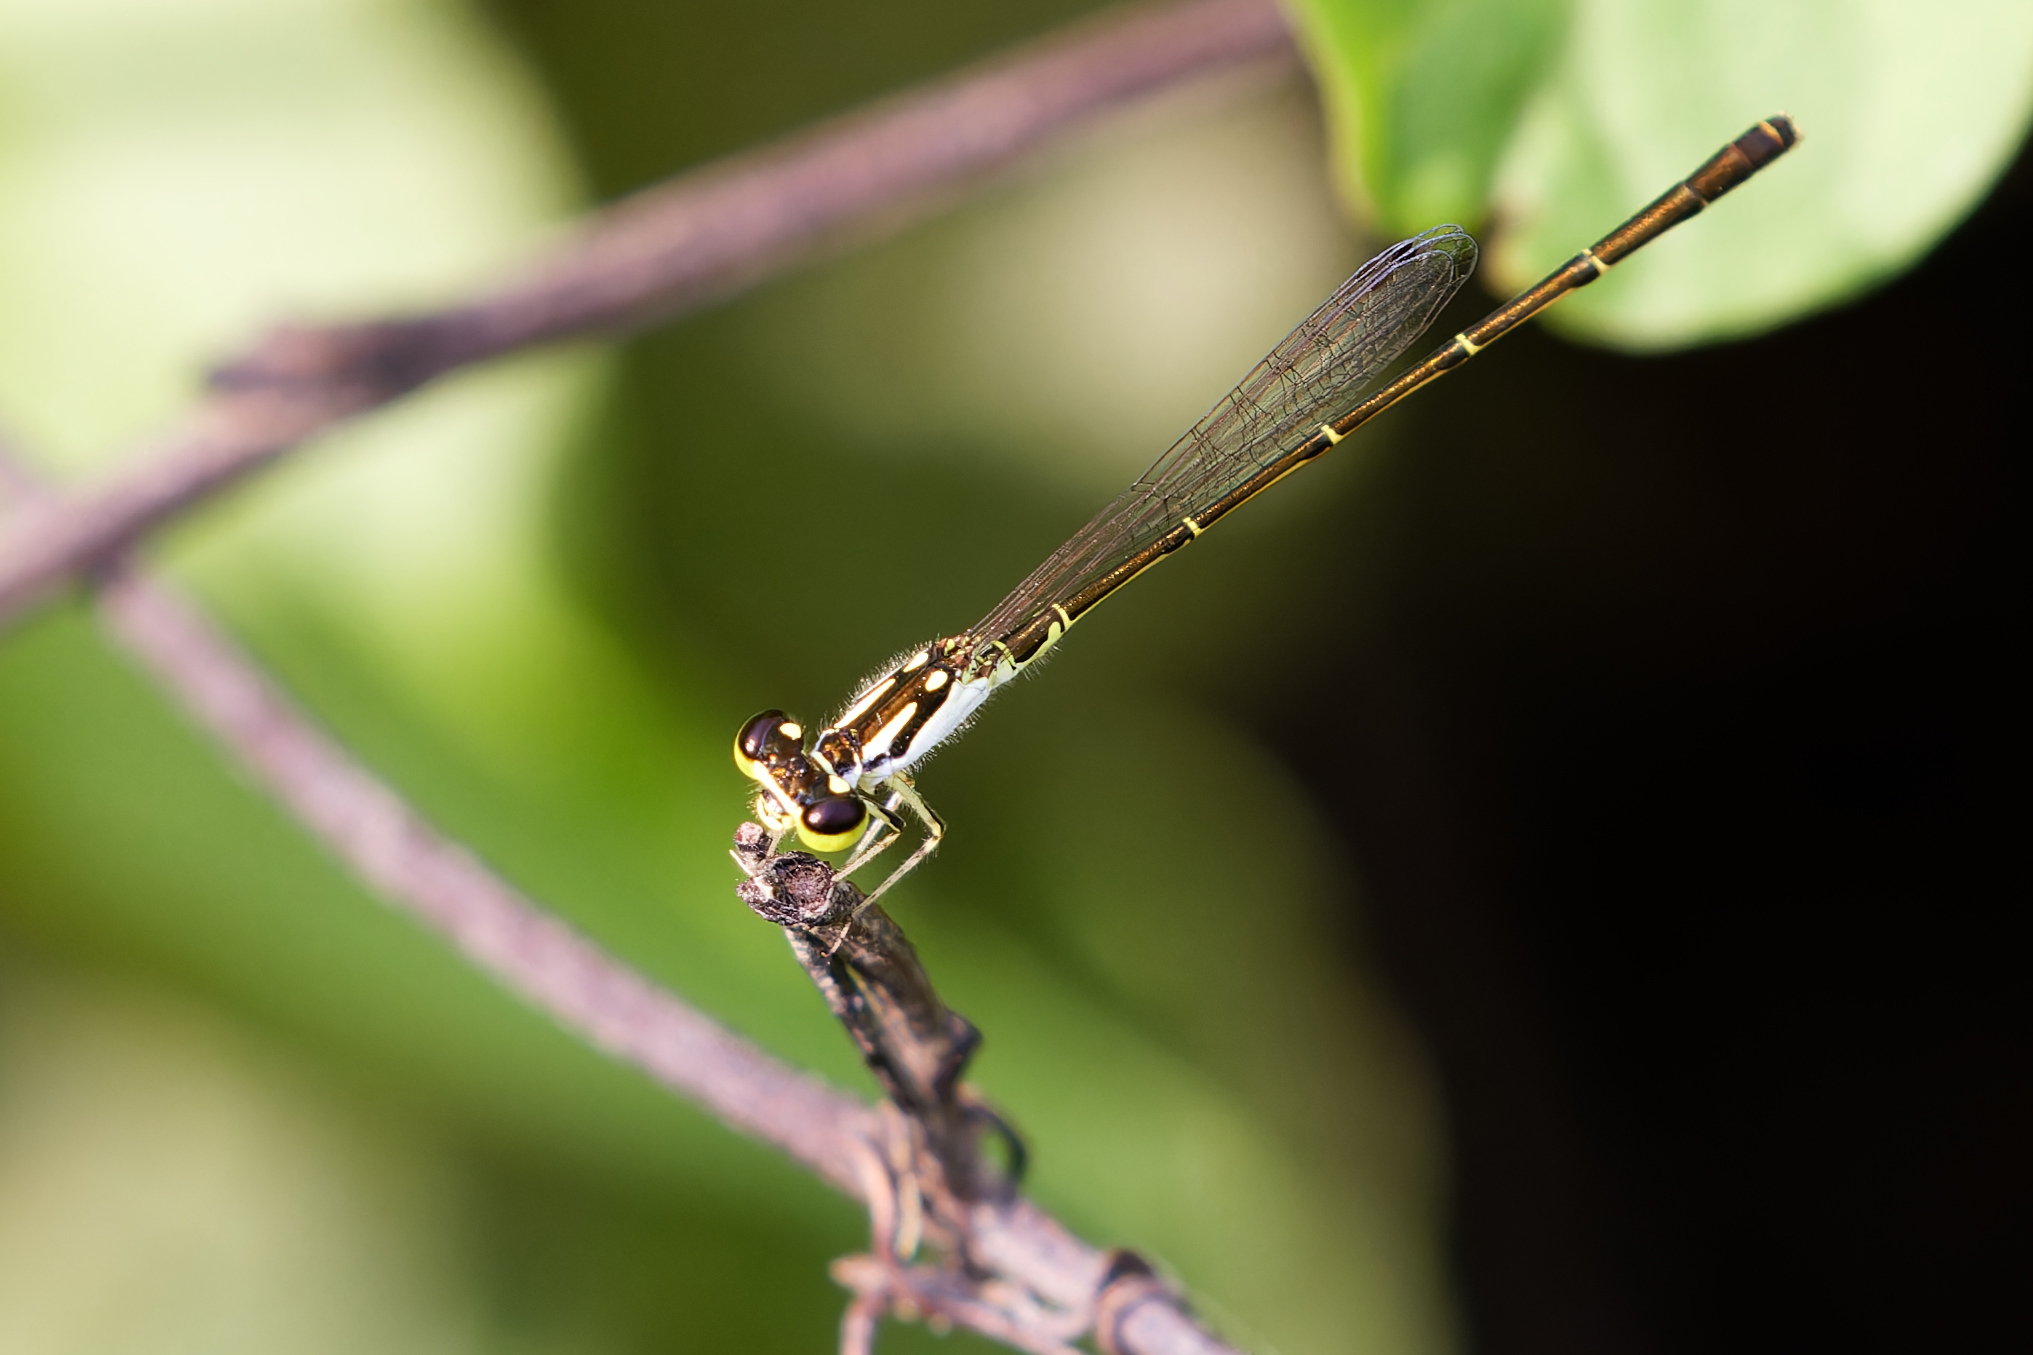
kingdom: Animalia
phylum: Arthropoda
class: Insecta
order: Odonata
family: Coenagrionidae
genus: Ischnura
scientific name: Ischnura posita
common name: Fragile forktail
